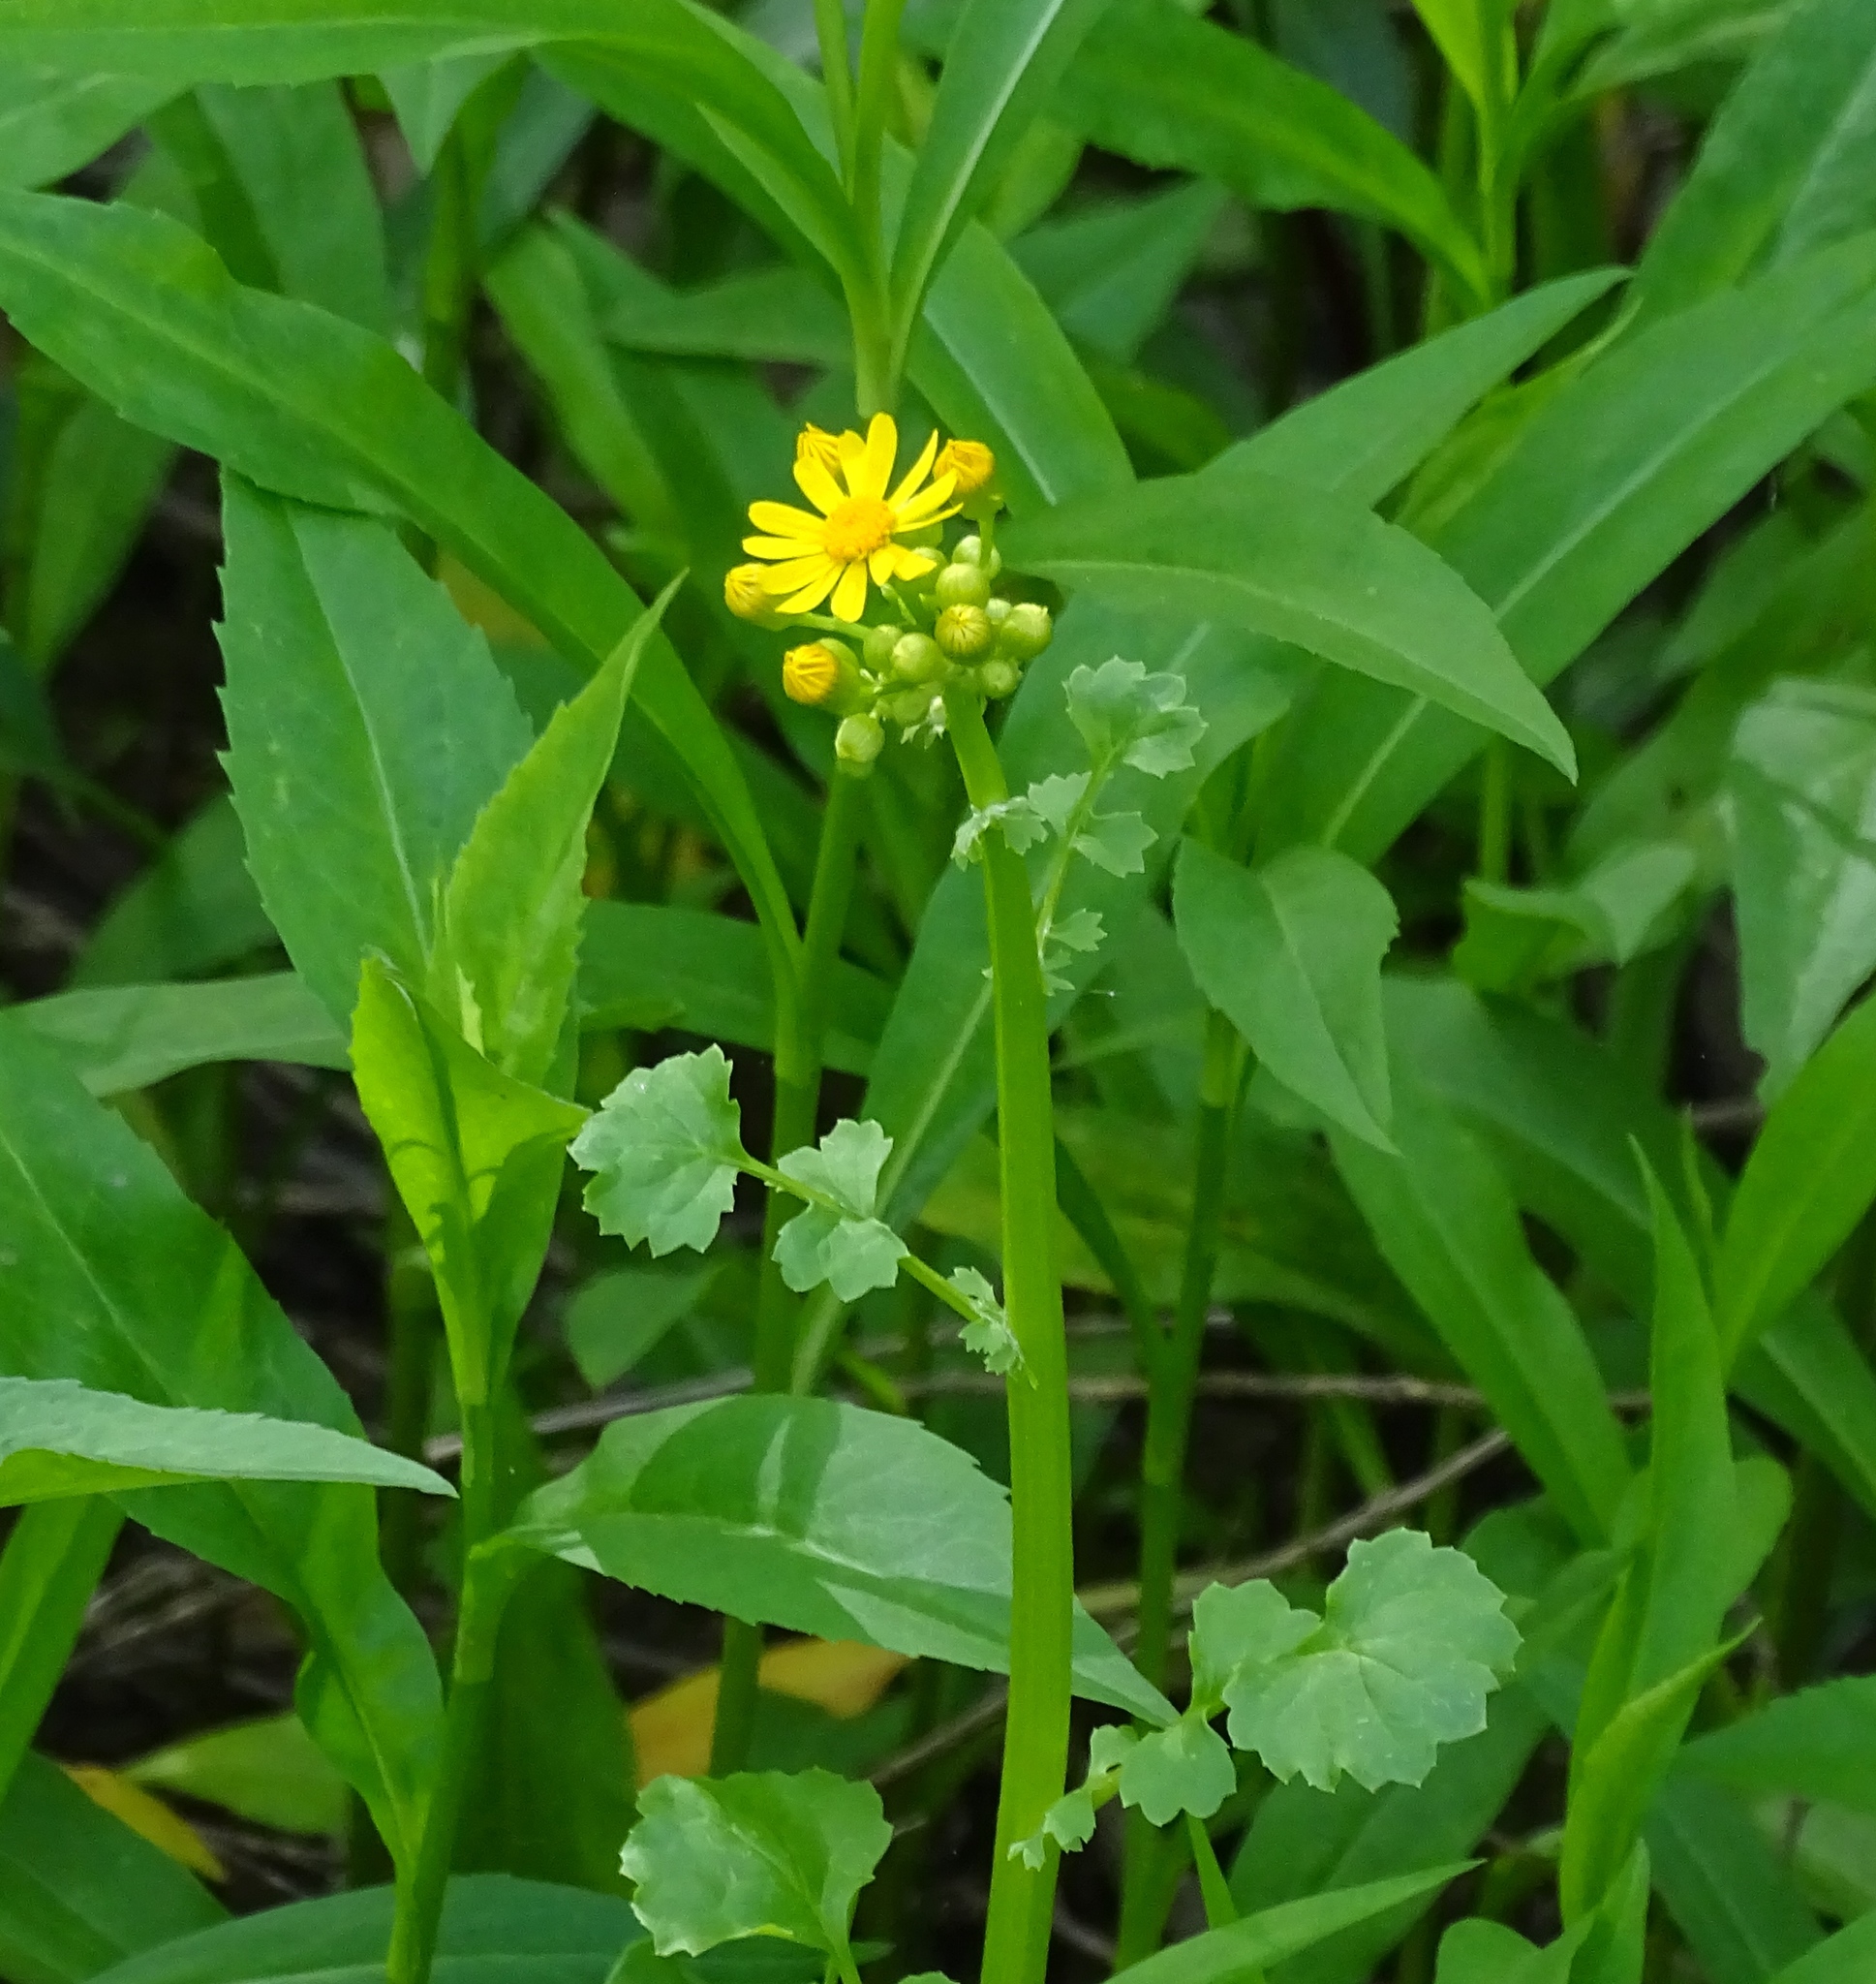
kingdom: Plantae
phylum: Tracheophyta
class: Magnoliopsida
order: Asterales
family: Asteraceae
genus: Packera
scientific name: Packera glabella
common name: Butterweed
